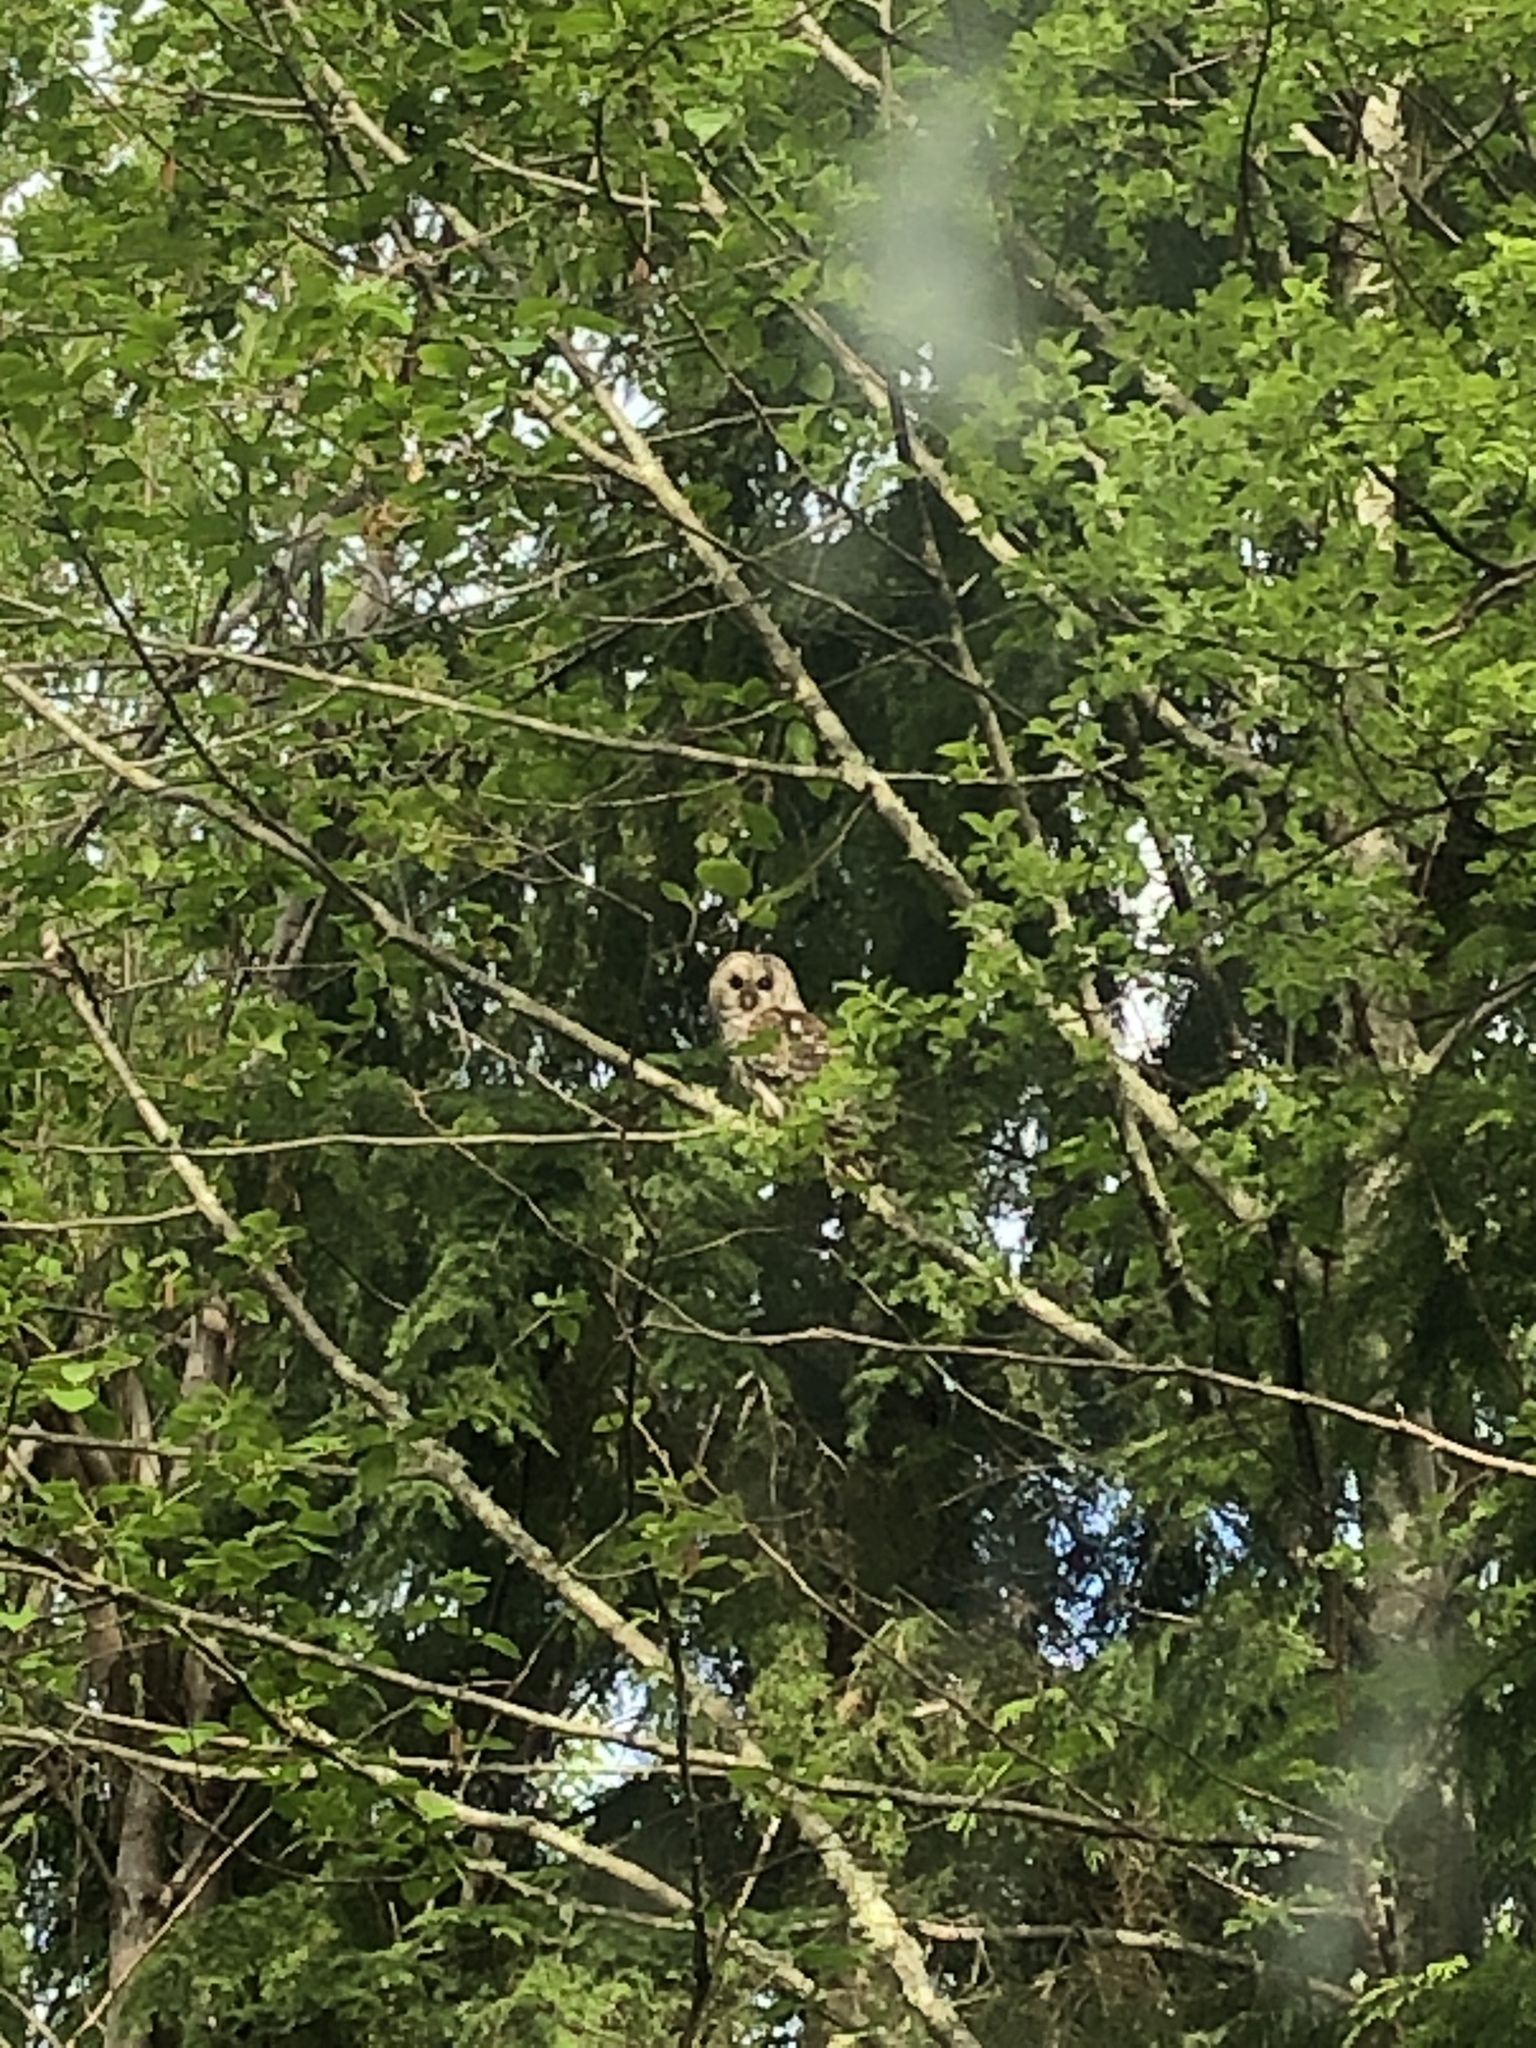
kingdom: Animalia
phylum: Chordata
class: Aves
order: Strigiformes
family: Strigidae
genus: Strix
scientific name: Strix varia
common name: Barred owl
